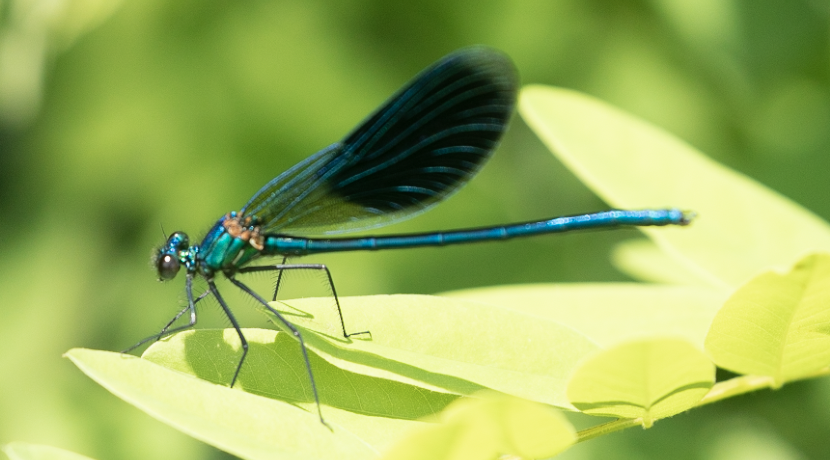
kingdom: Animalia
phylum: Arthropoda
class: Insecta
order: Odonata
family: Calopterygidae
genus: Calopteryx
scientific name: Calopteryx splendens
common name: Banded demoiselle
